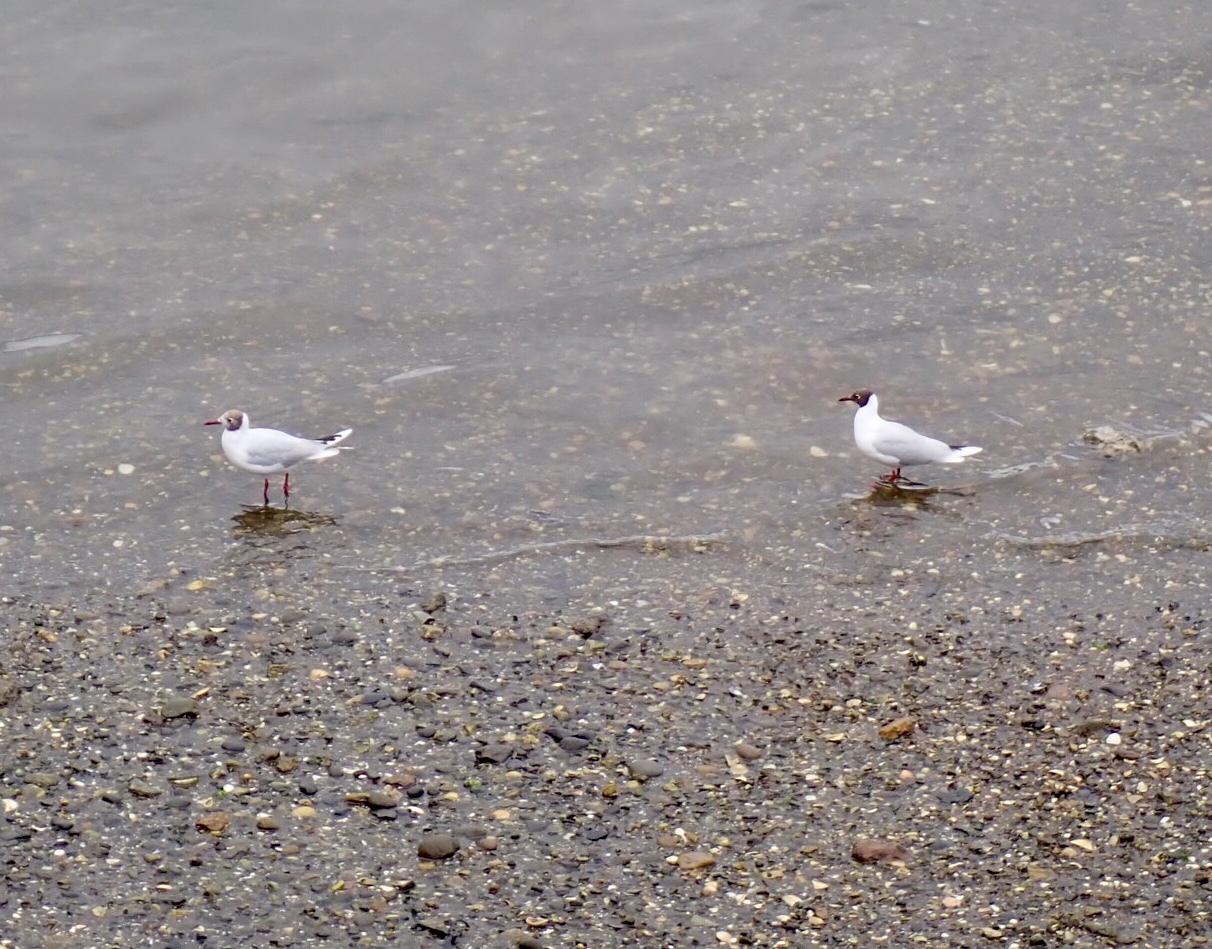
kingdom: Animalia
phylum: Chordata
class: Aves
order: Charadriiformes
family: Laridae
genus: Chroicocephalus
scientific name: Chroicocephalus maculipennis
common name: Brown-hooded gull
